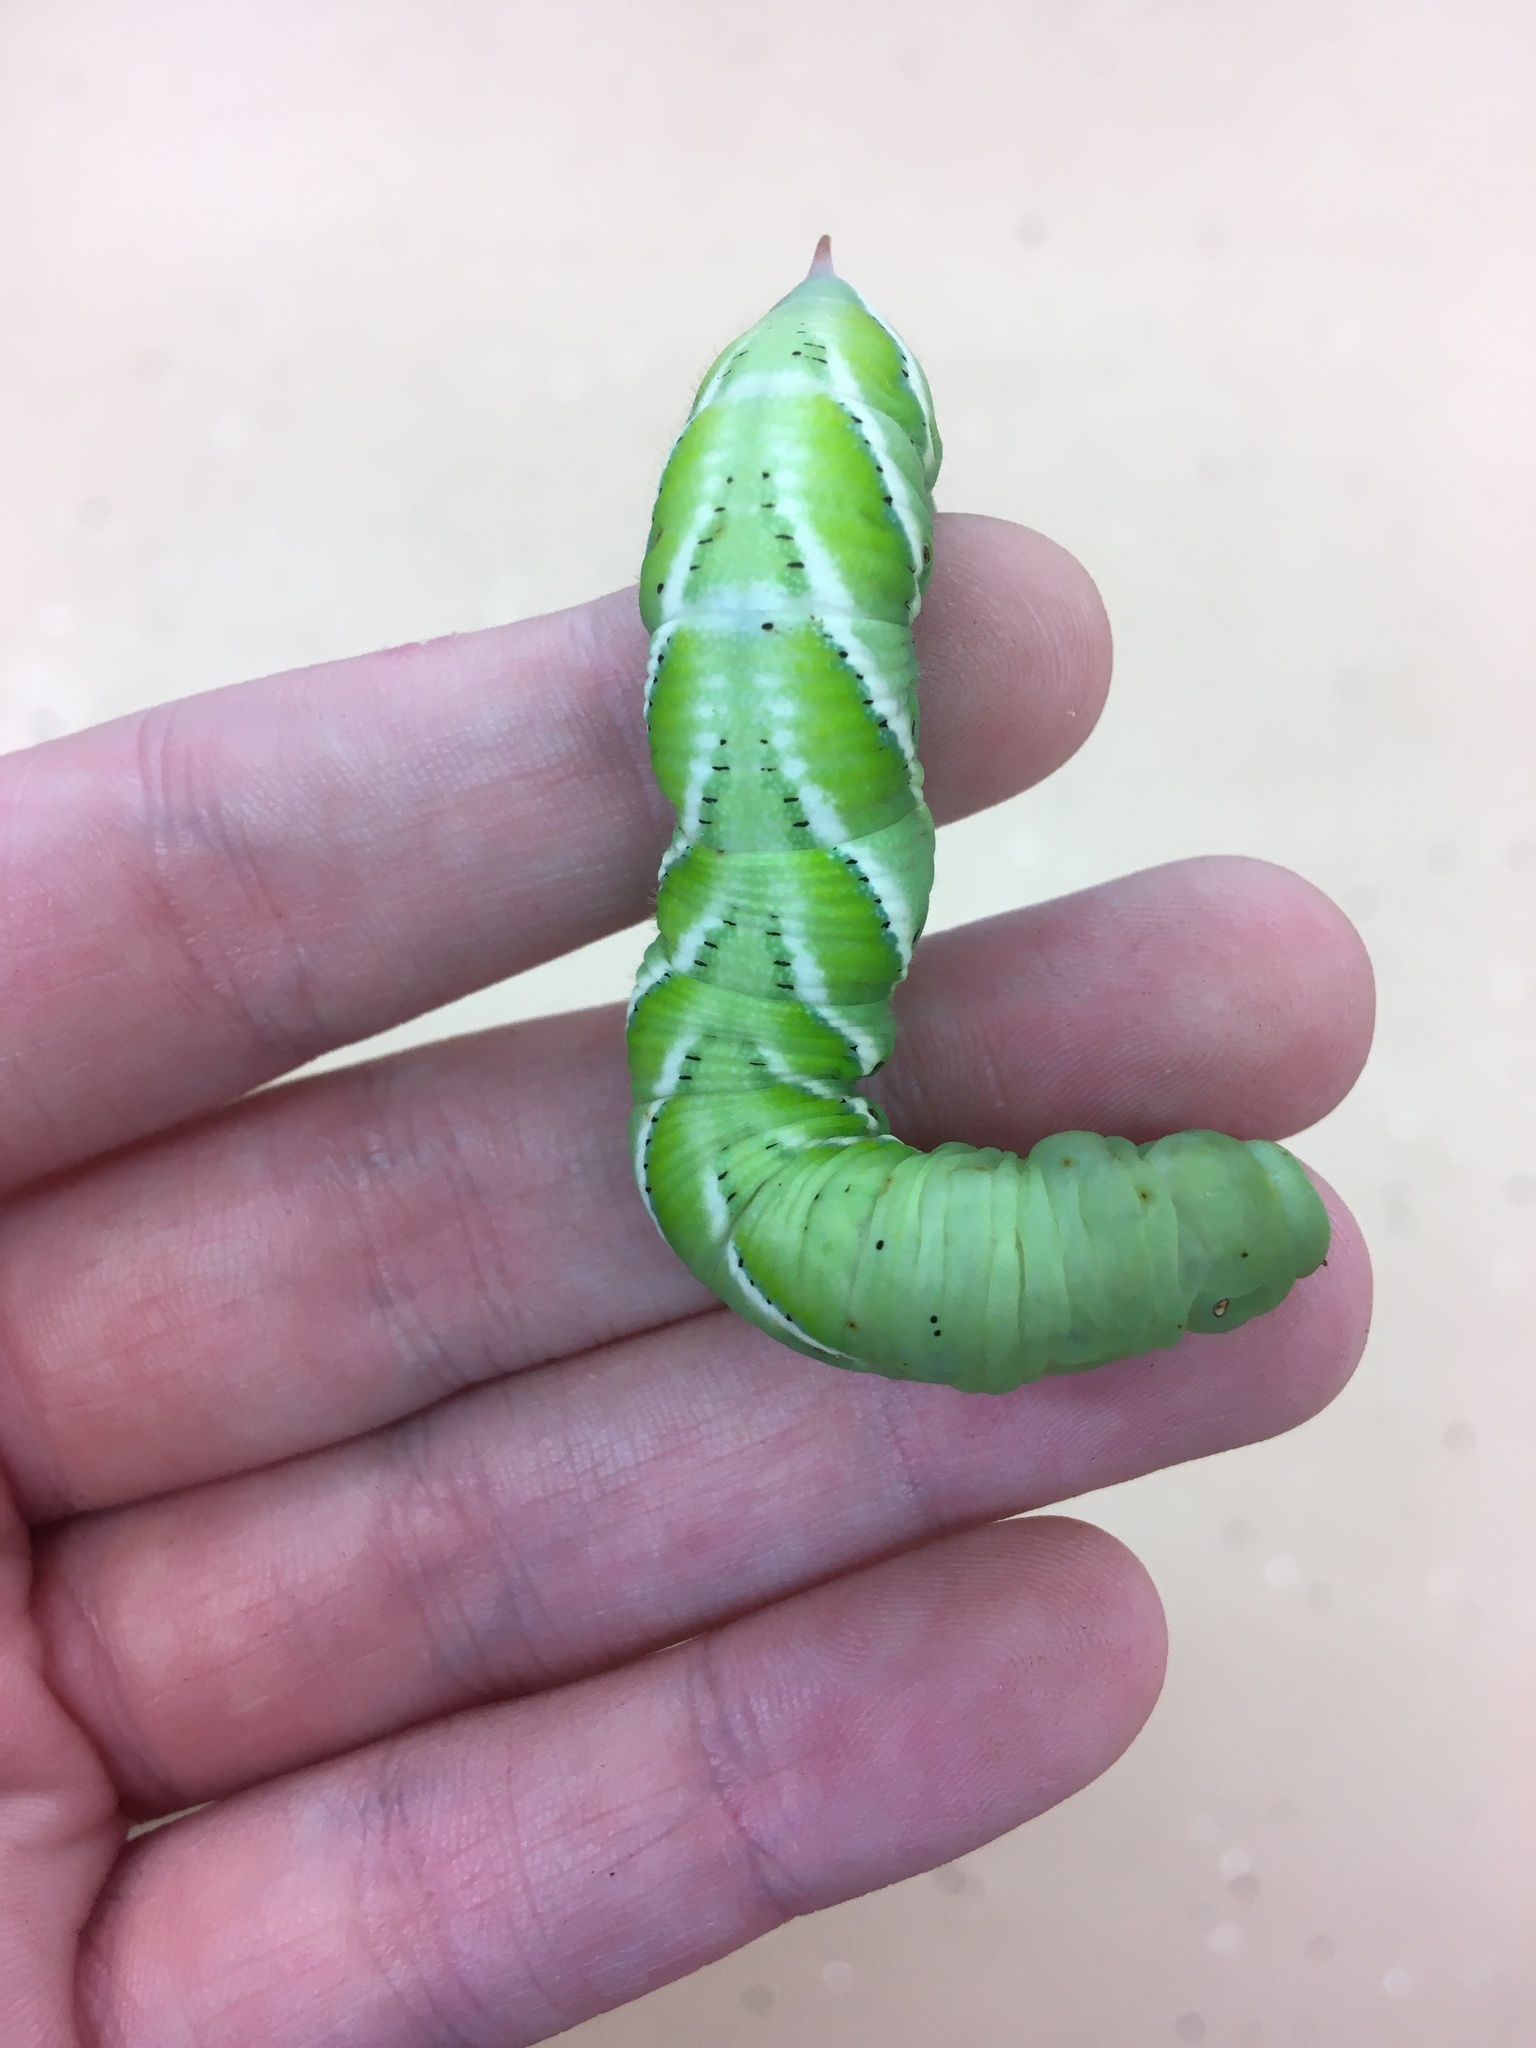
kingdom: Animalia
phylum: Arthropoda
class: Insecta
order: Lepidoptera
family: Sphingidae
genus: Manduca
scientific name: Manduca sexta
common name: Carolina sphinx
